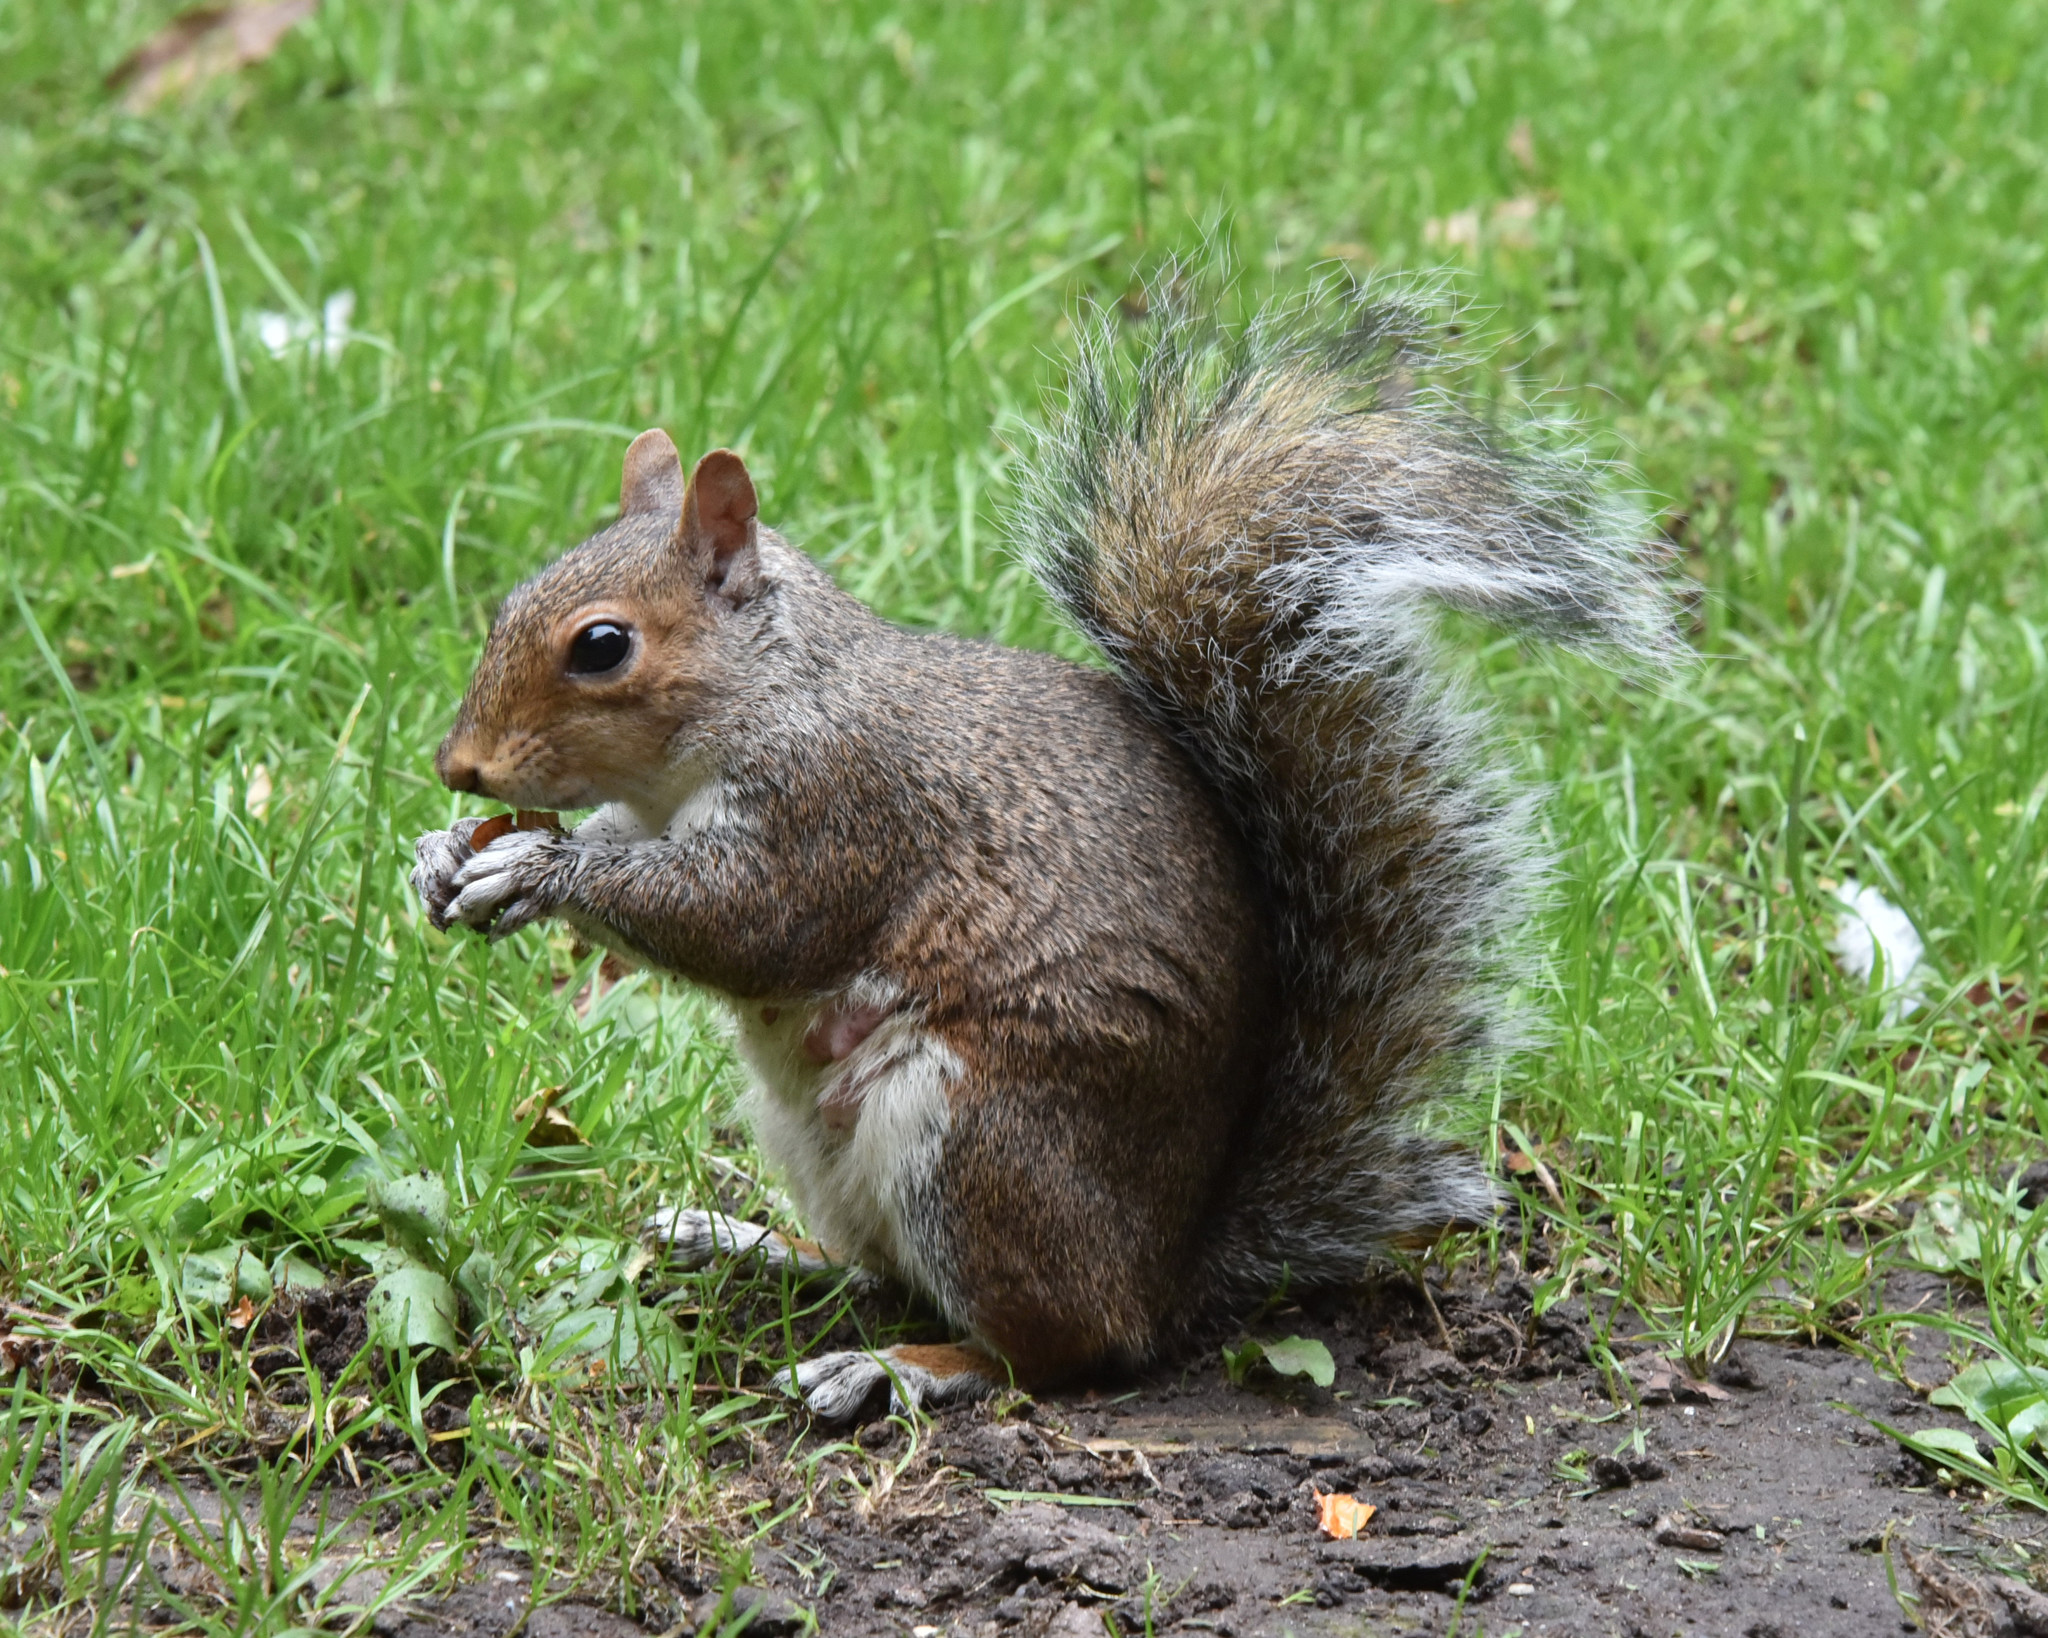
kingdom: Animalia
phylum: Chordata
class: Mammalia
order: Rodentia
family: Sciuridae
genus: Sciurus
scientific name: Sciurus carolinensis
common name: Eastern gray squirrel
